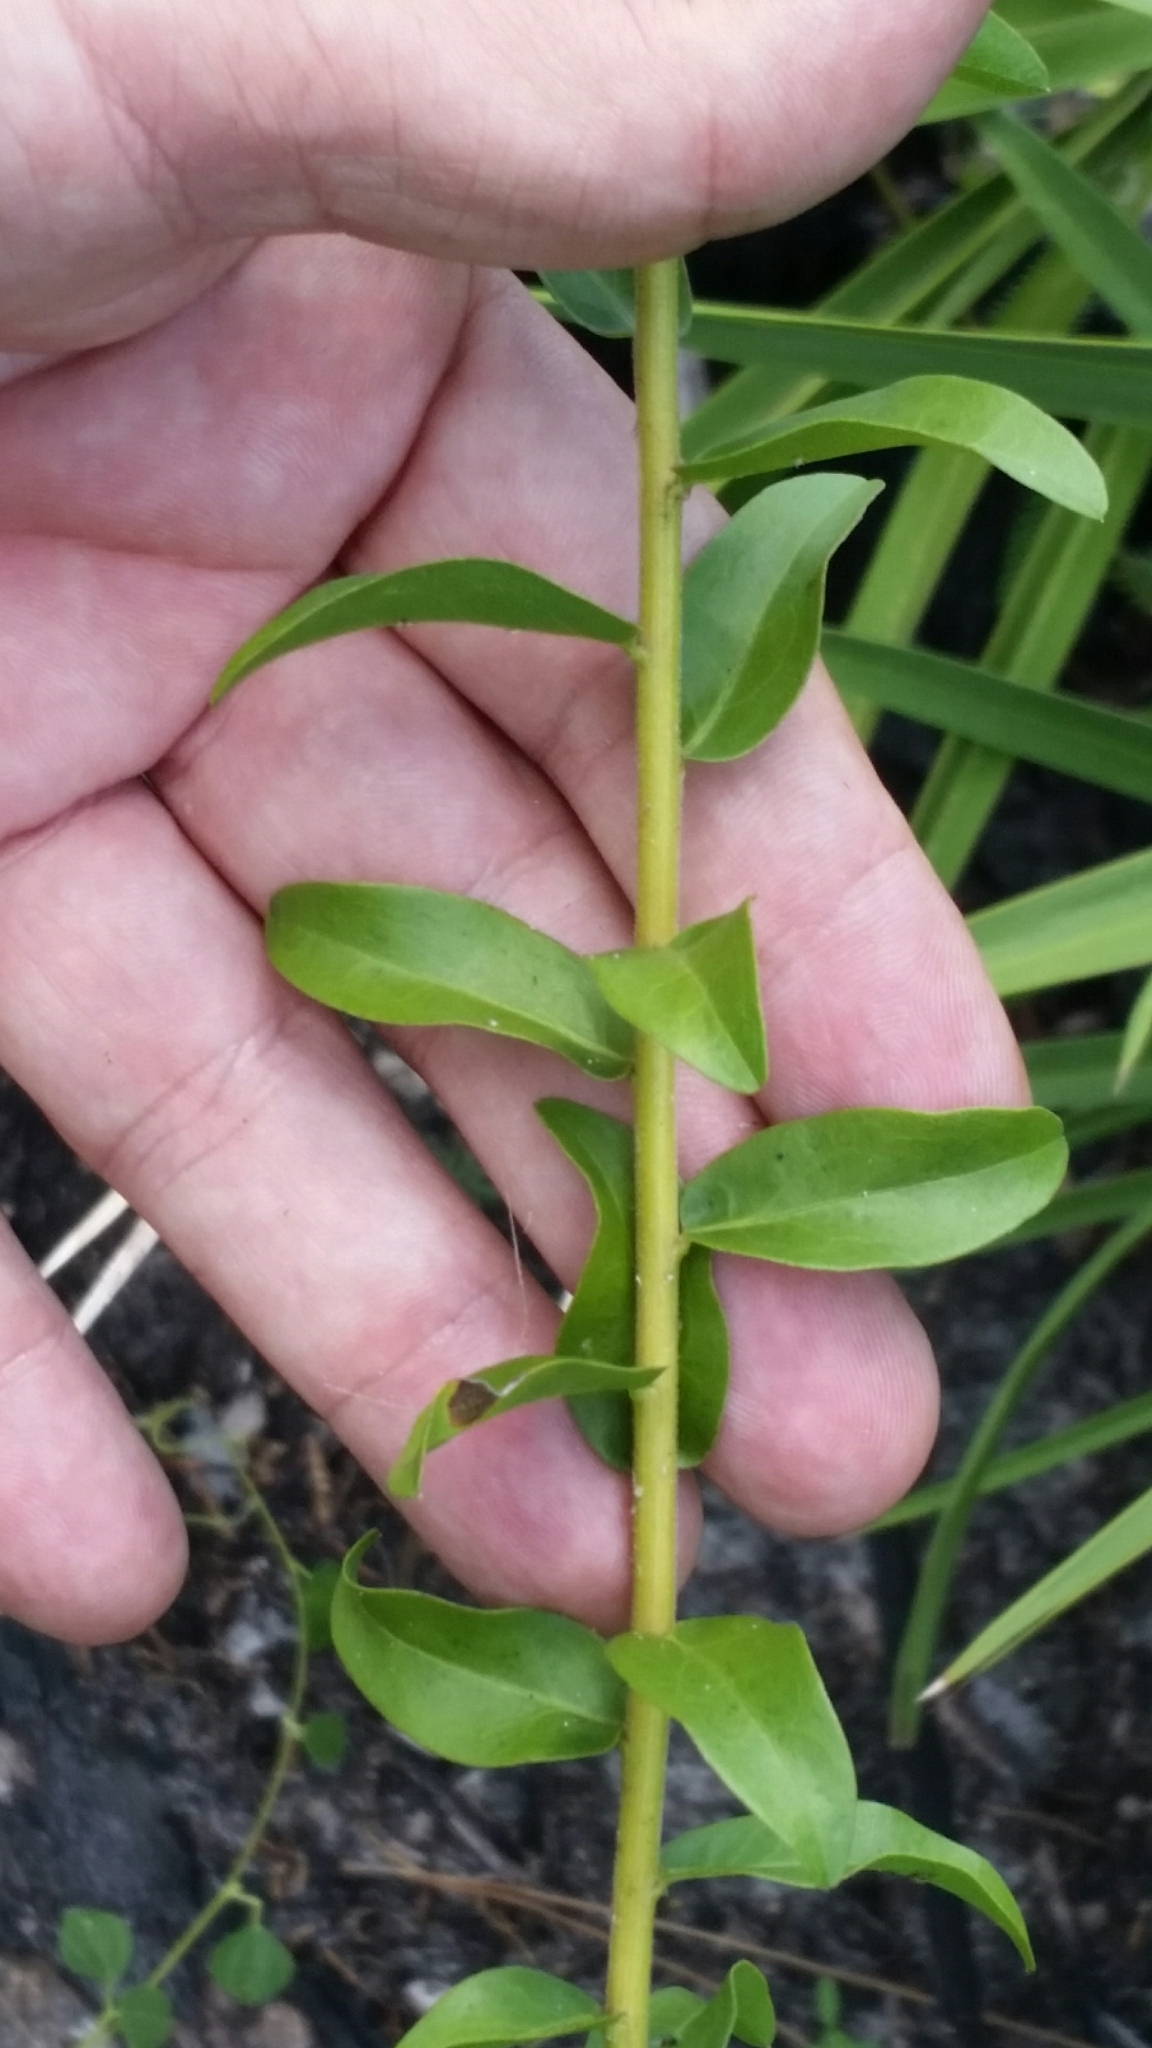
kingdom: Plantae
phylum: Tracheophyta
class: Magnoliopsida
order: Asterales
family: Asteraceae
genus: Solidago
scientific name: Solidago chapmanii
